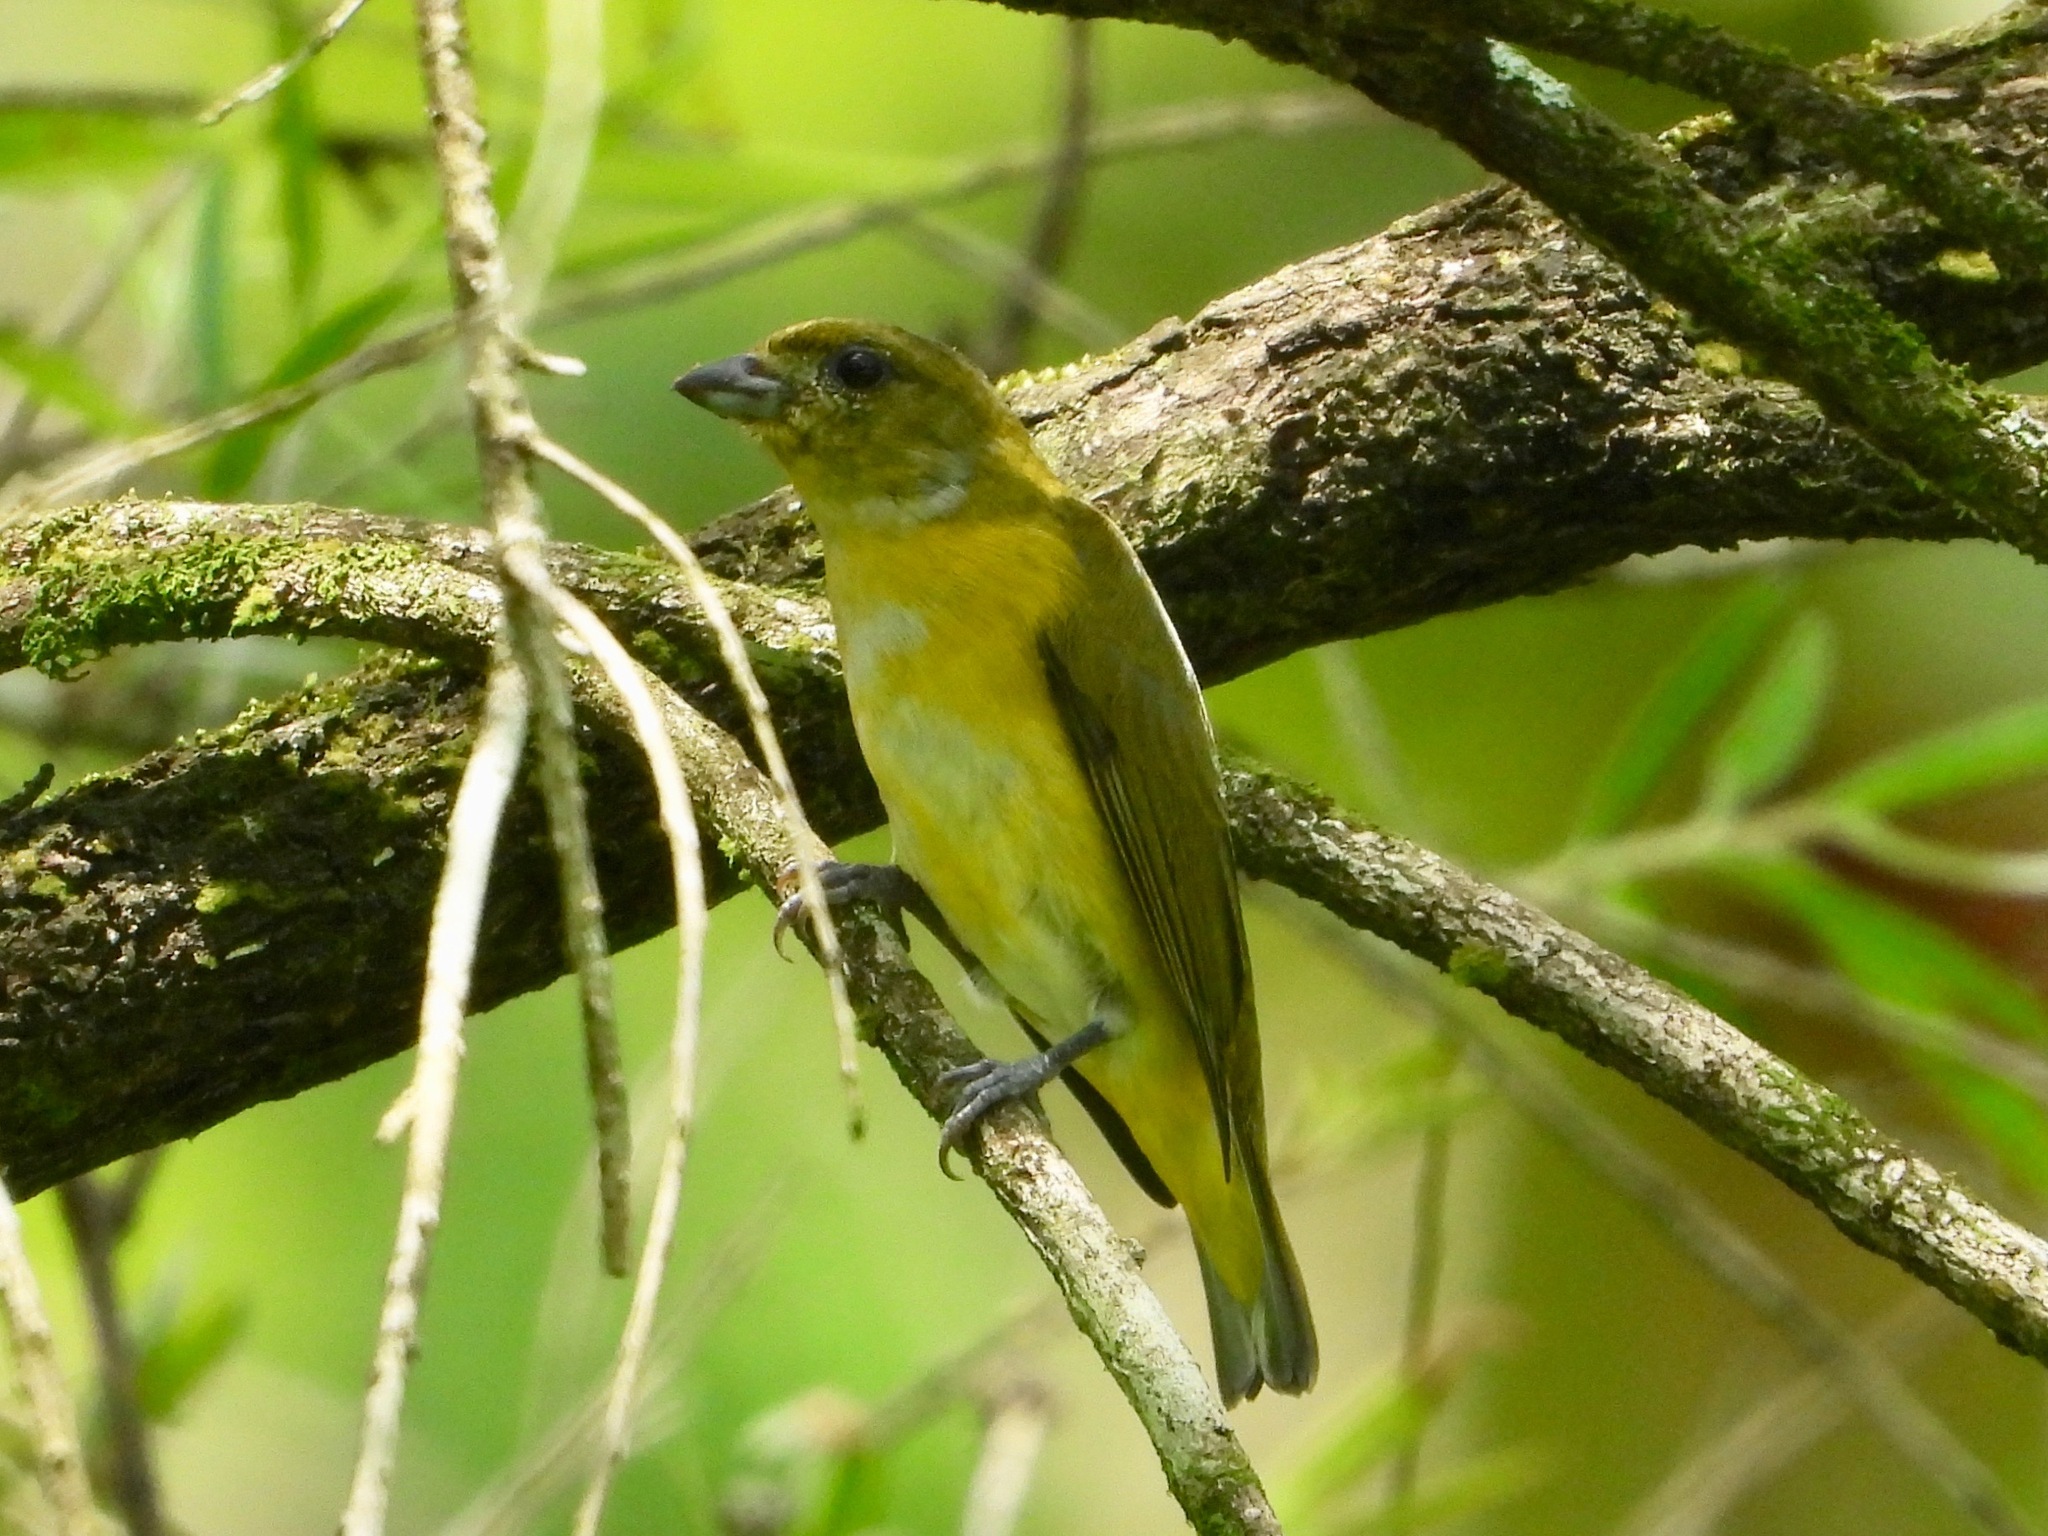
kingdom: Animalia
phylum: Chordata
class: Aves
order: Passeriformes
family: Fringillidae
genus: Euphonia
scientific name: Euphonia hirundinacea
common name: Yellow-throated euphonia
